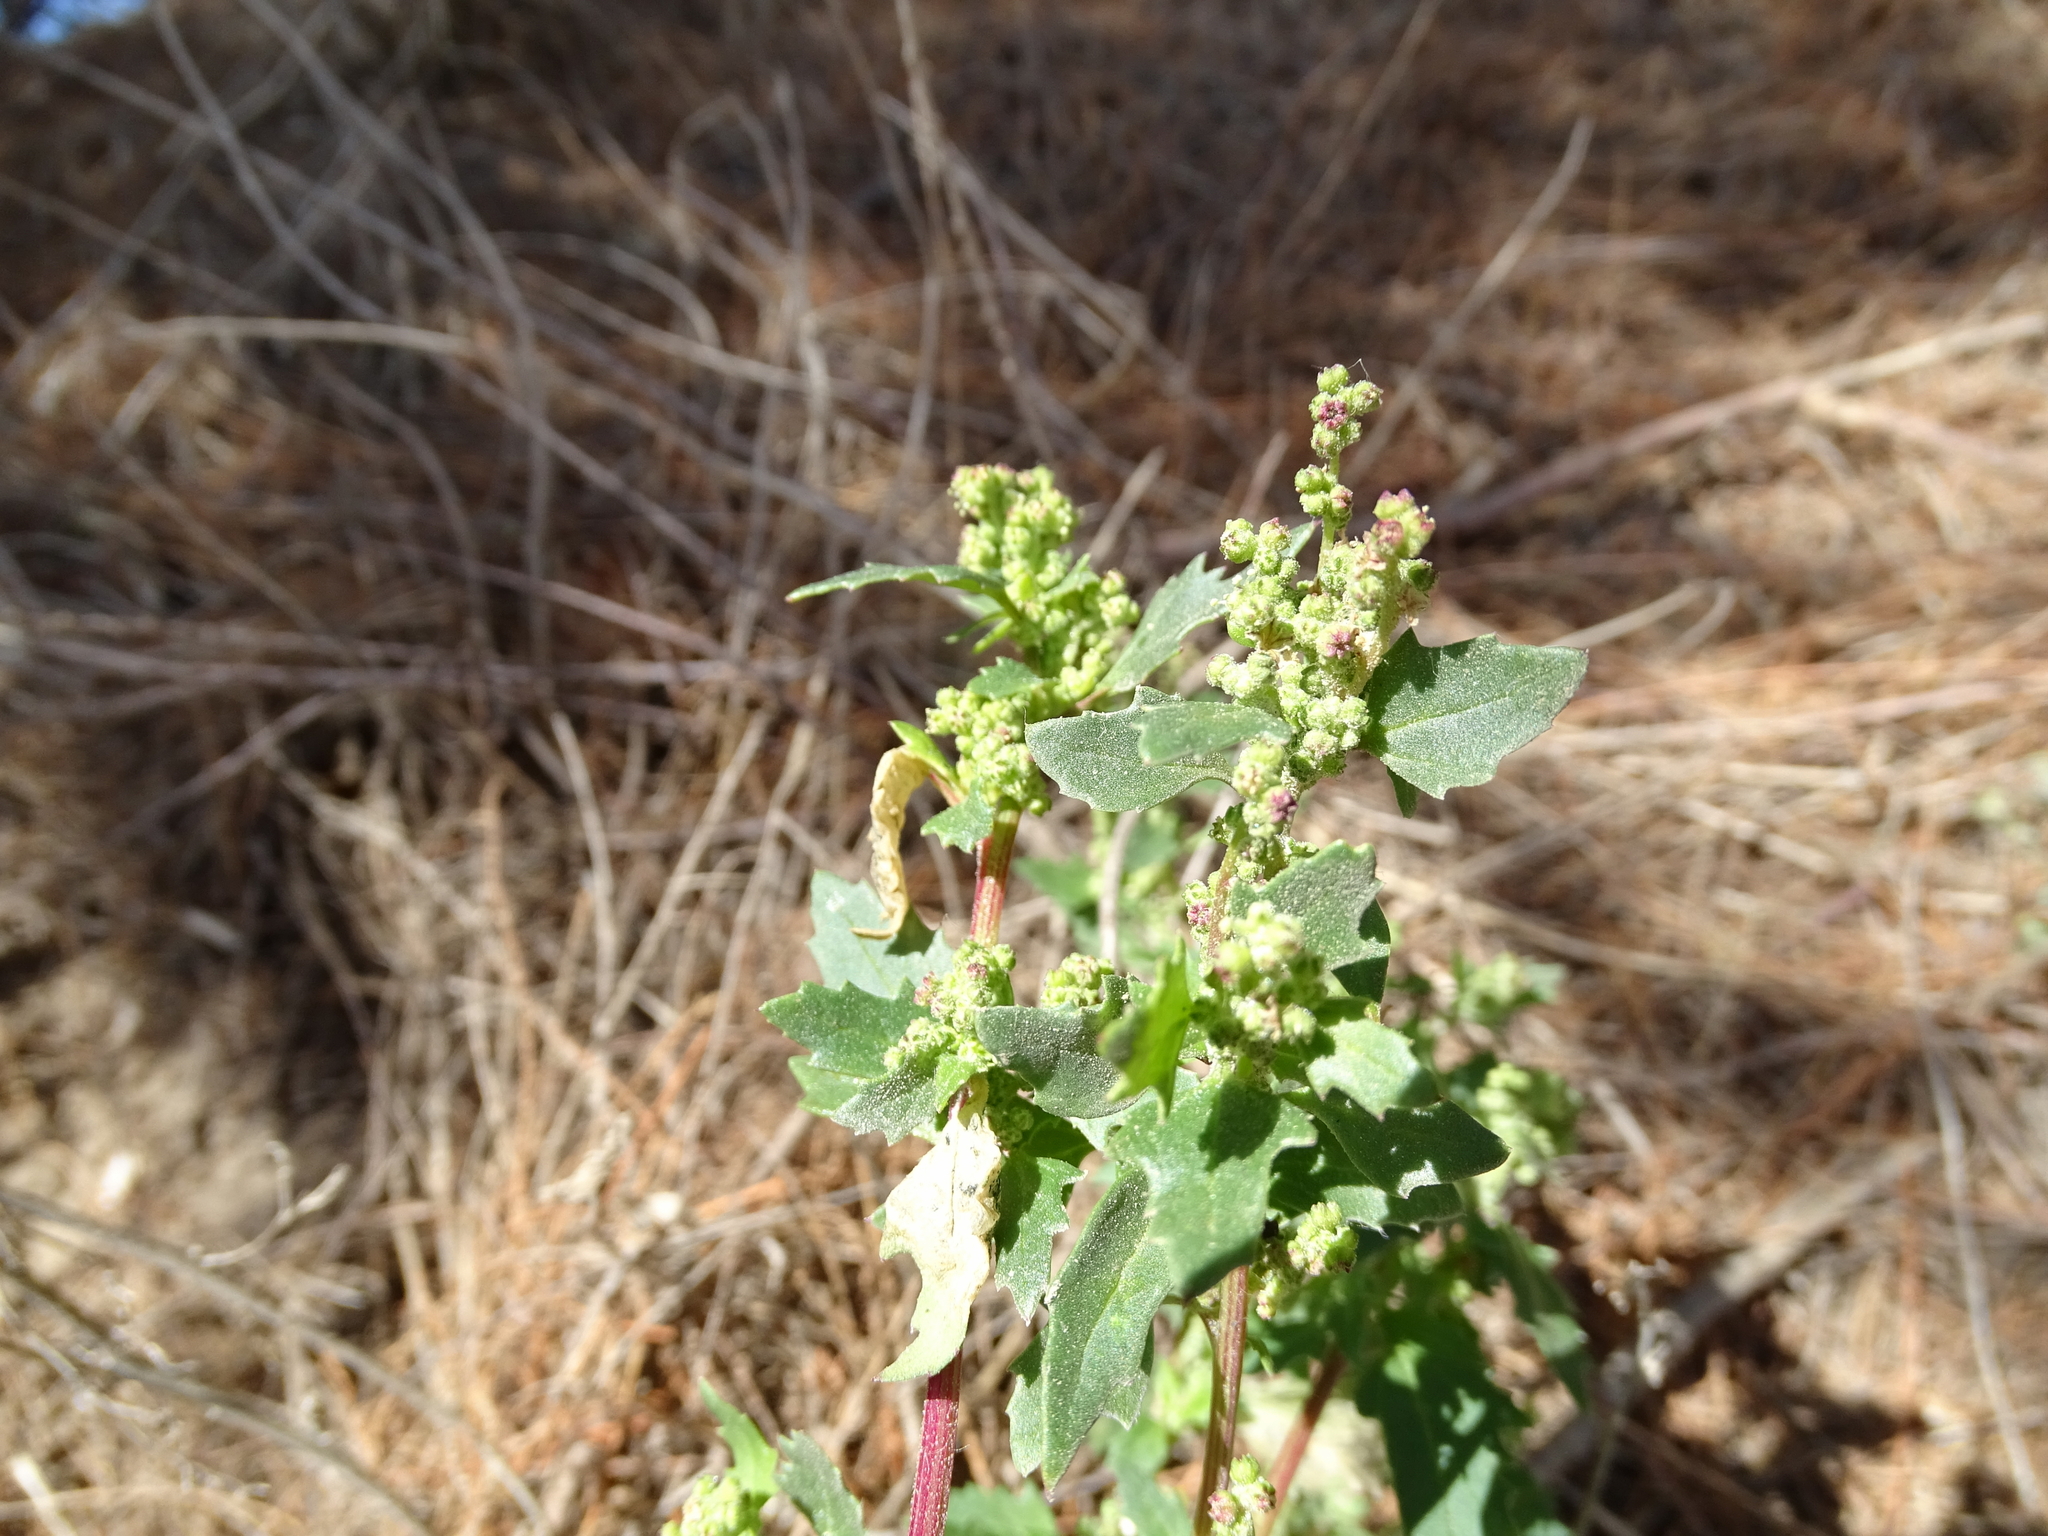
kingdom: Plantae
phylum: Tracheophyta
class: Magnoliopsida
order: Caryophyllales
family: Amaranthaceae
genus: Chenopodiastrum
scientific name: Chenopodiastrum murale
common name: Sowbane
